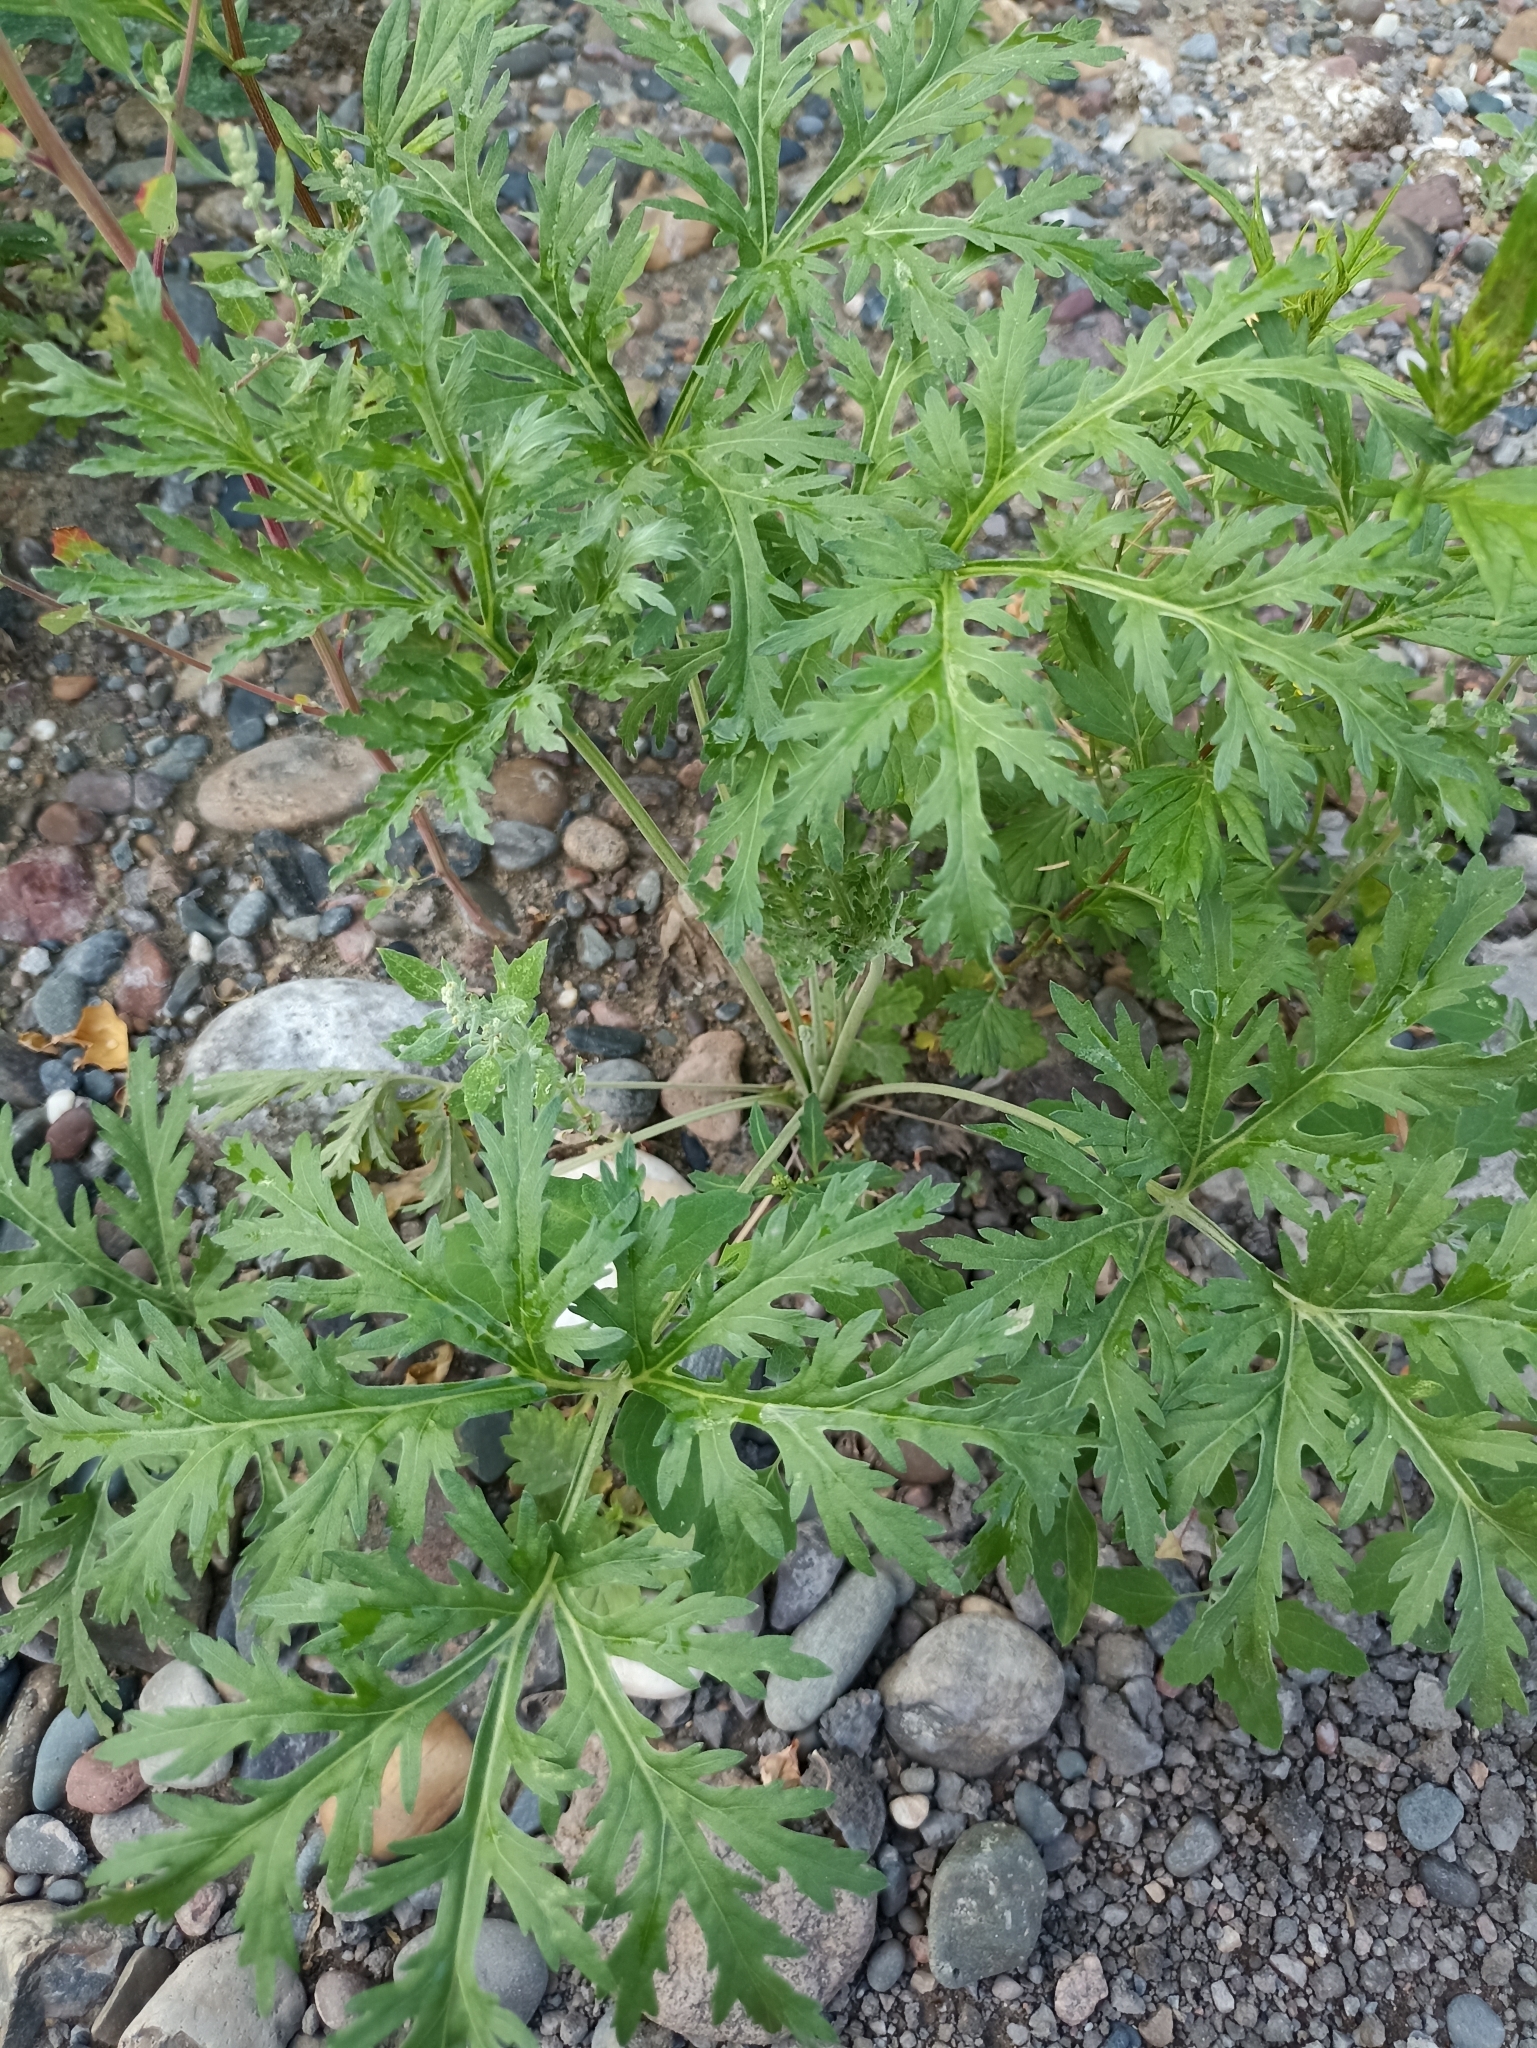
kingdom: Plantae
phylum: Tracheophyta
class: Magnoliopsida
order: Asterales
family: Asteraceae
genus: Artemisia
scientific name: Artemisia sieversiana
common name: Sieversian wormwood
